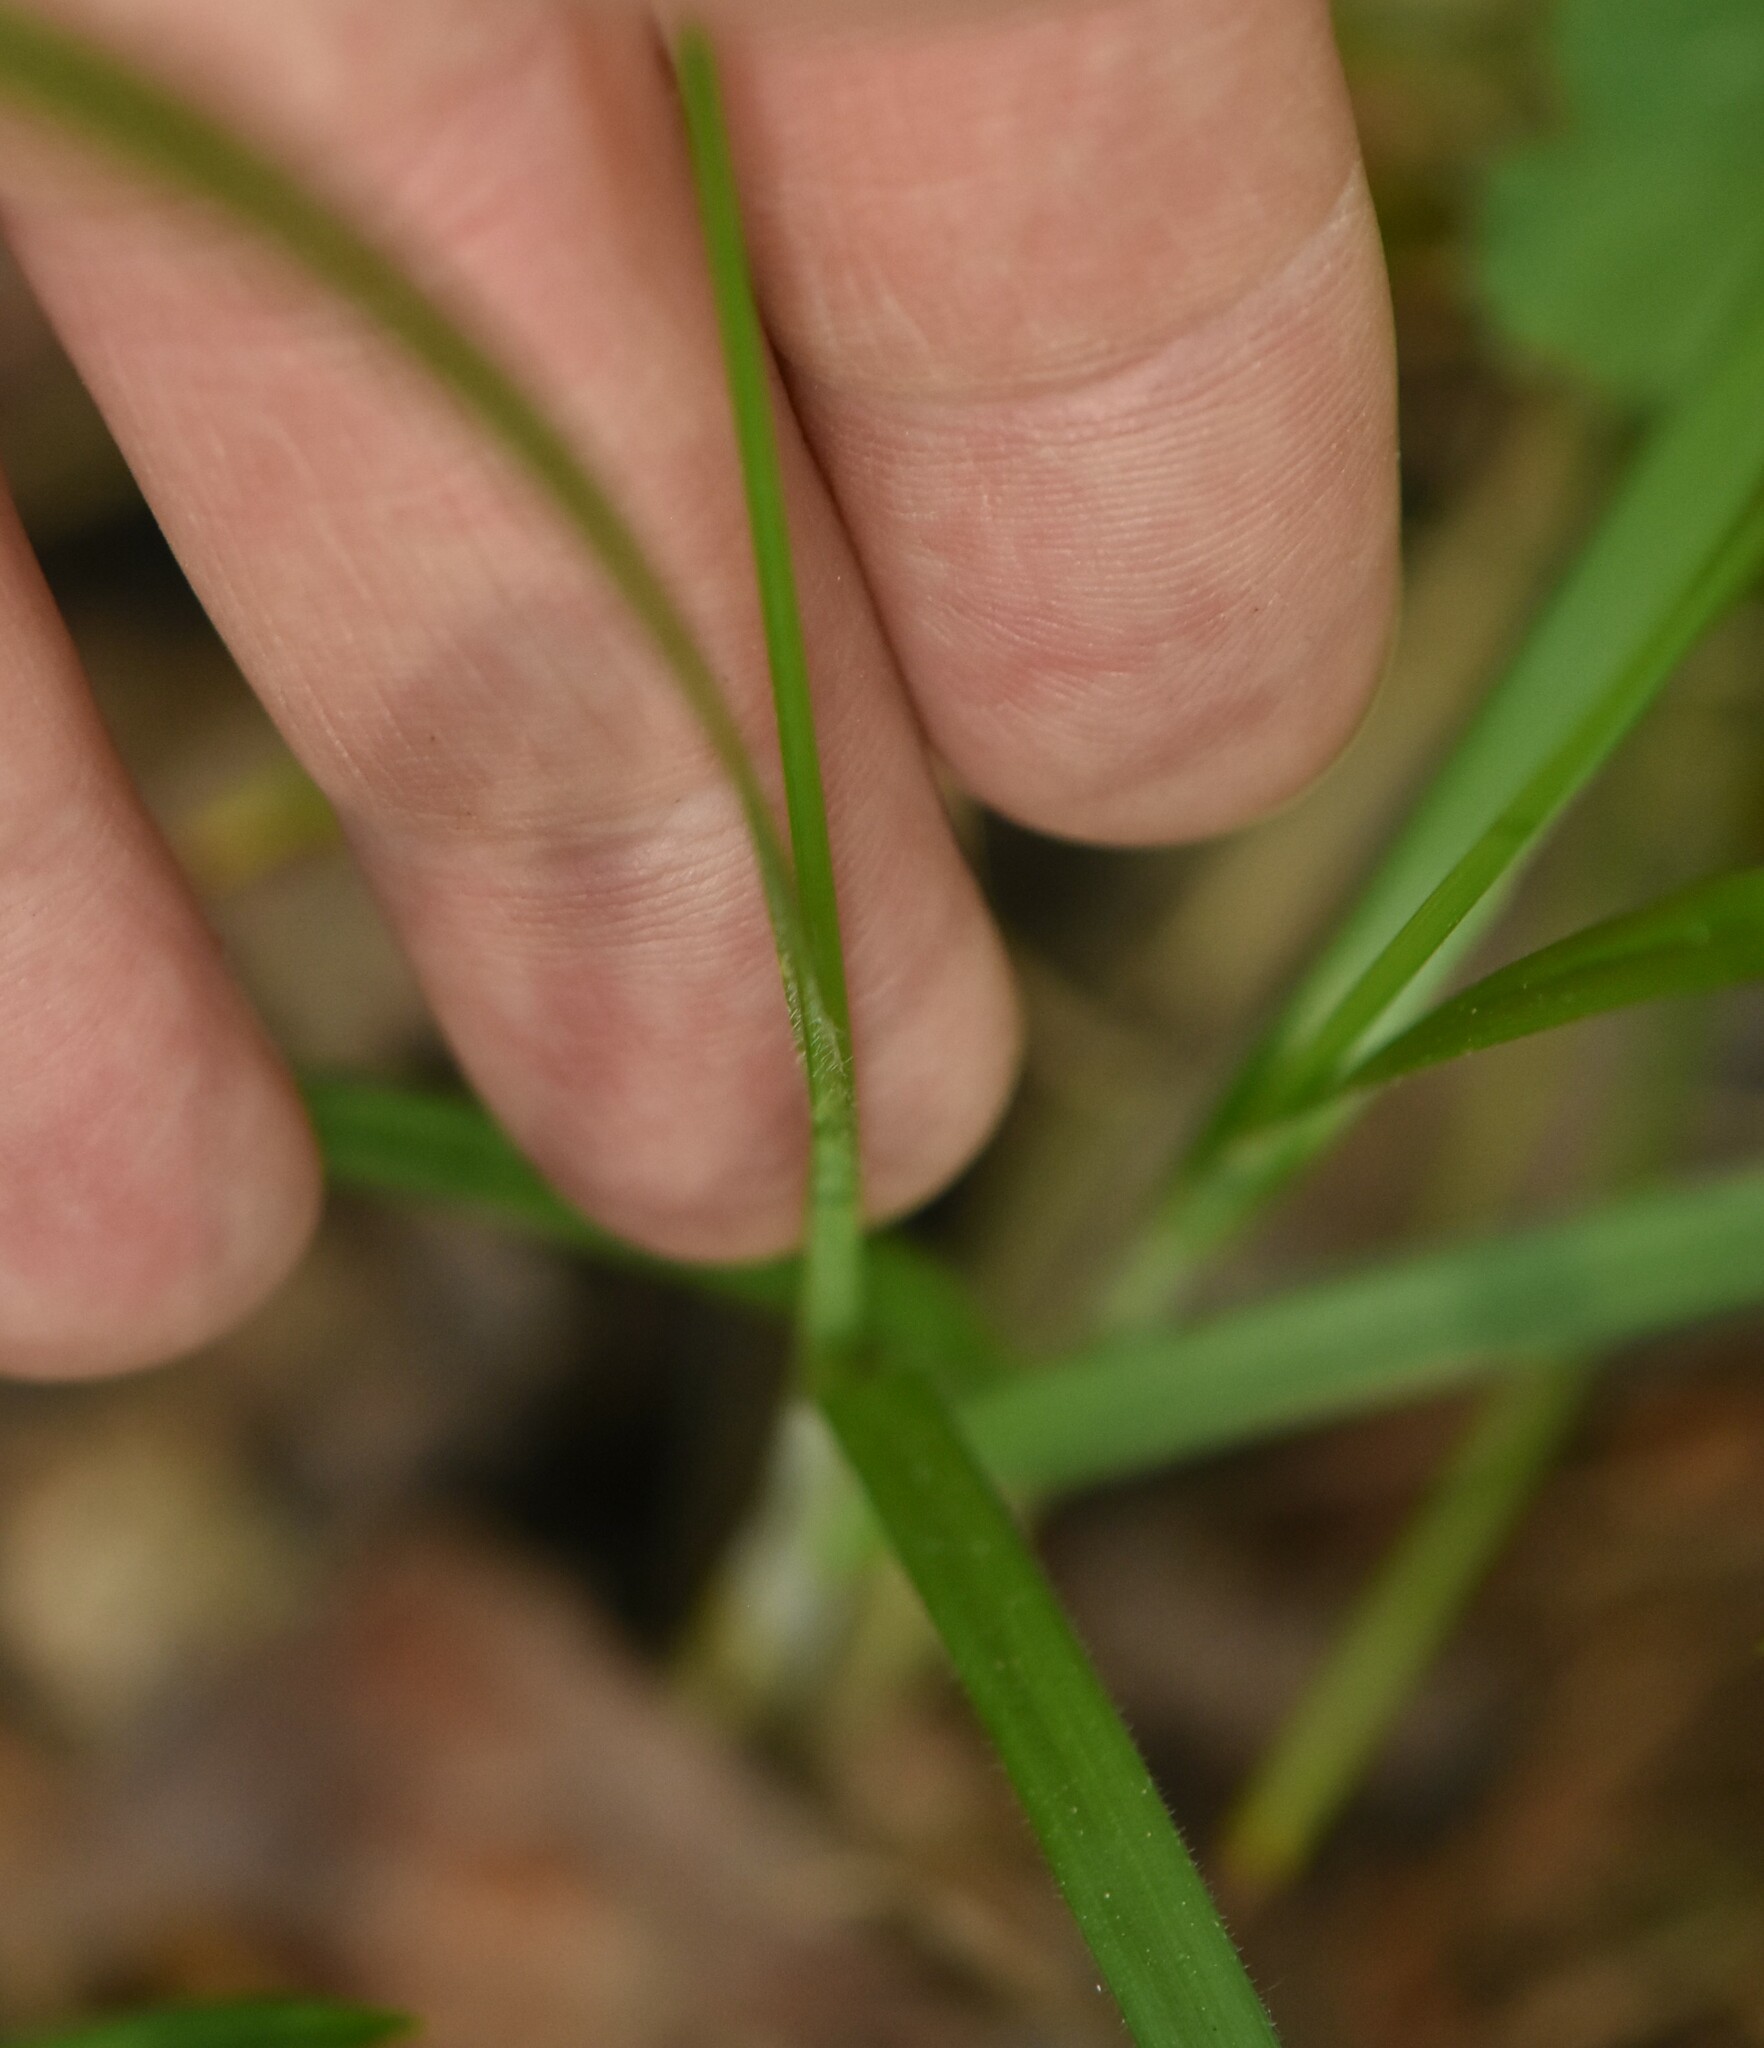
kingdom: Plantae
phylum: Tracheophyta
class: Liliopsida
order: Poales
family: Cyperaceae
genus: Carex
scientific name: Carex pallescens
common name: Pale sedge
